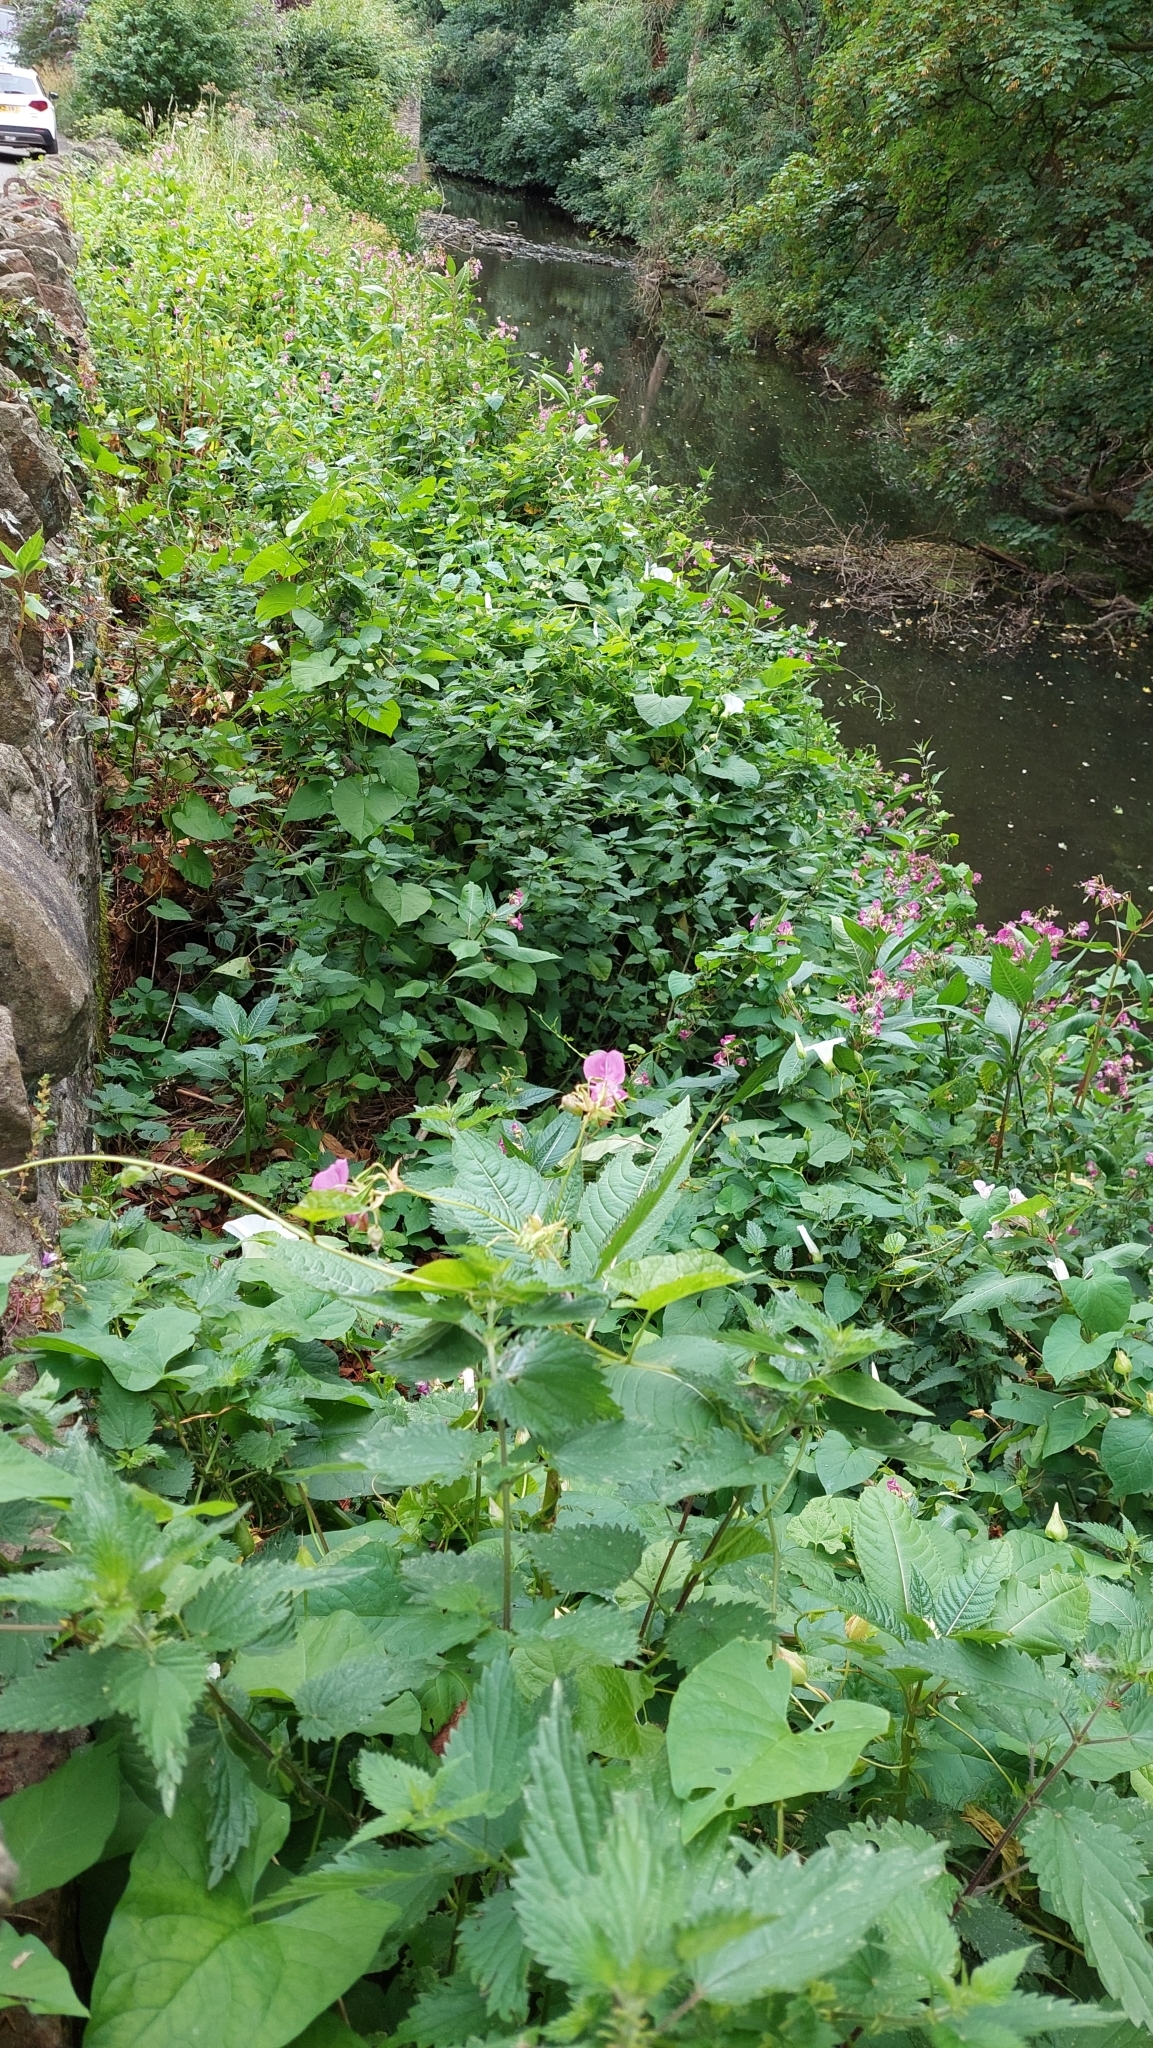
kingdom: Plantae
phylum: Tracheophyta
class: Magnoliopsida
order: Ericales
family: Balsaminaceae
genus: Impatiens
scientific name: Impatiens glandulifera
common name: Himalayan balsam
